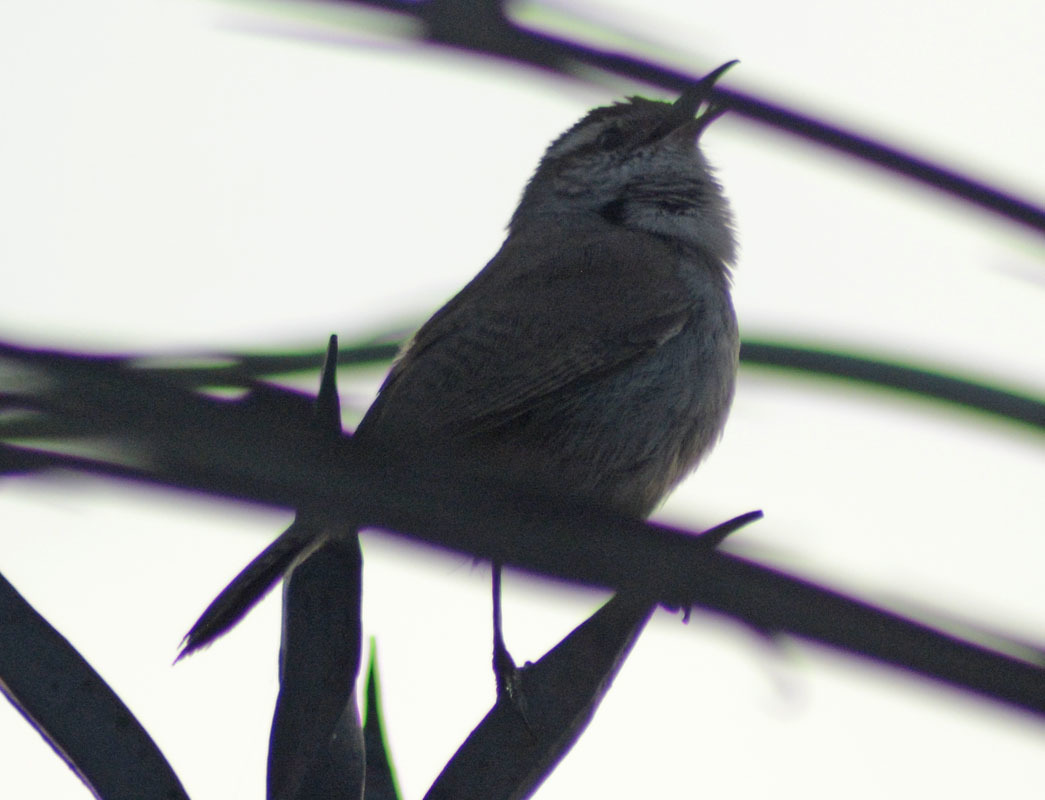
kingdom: Animalia
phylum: Chordata
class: Aves
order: Passeriformes
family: Troglodytidae
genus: Thryomanes
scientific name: Thryomanes bewickii
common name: Bewick's wren
